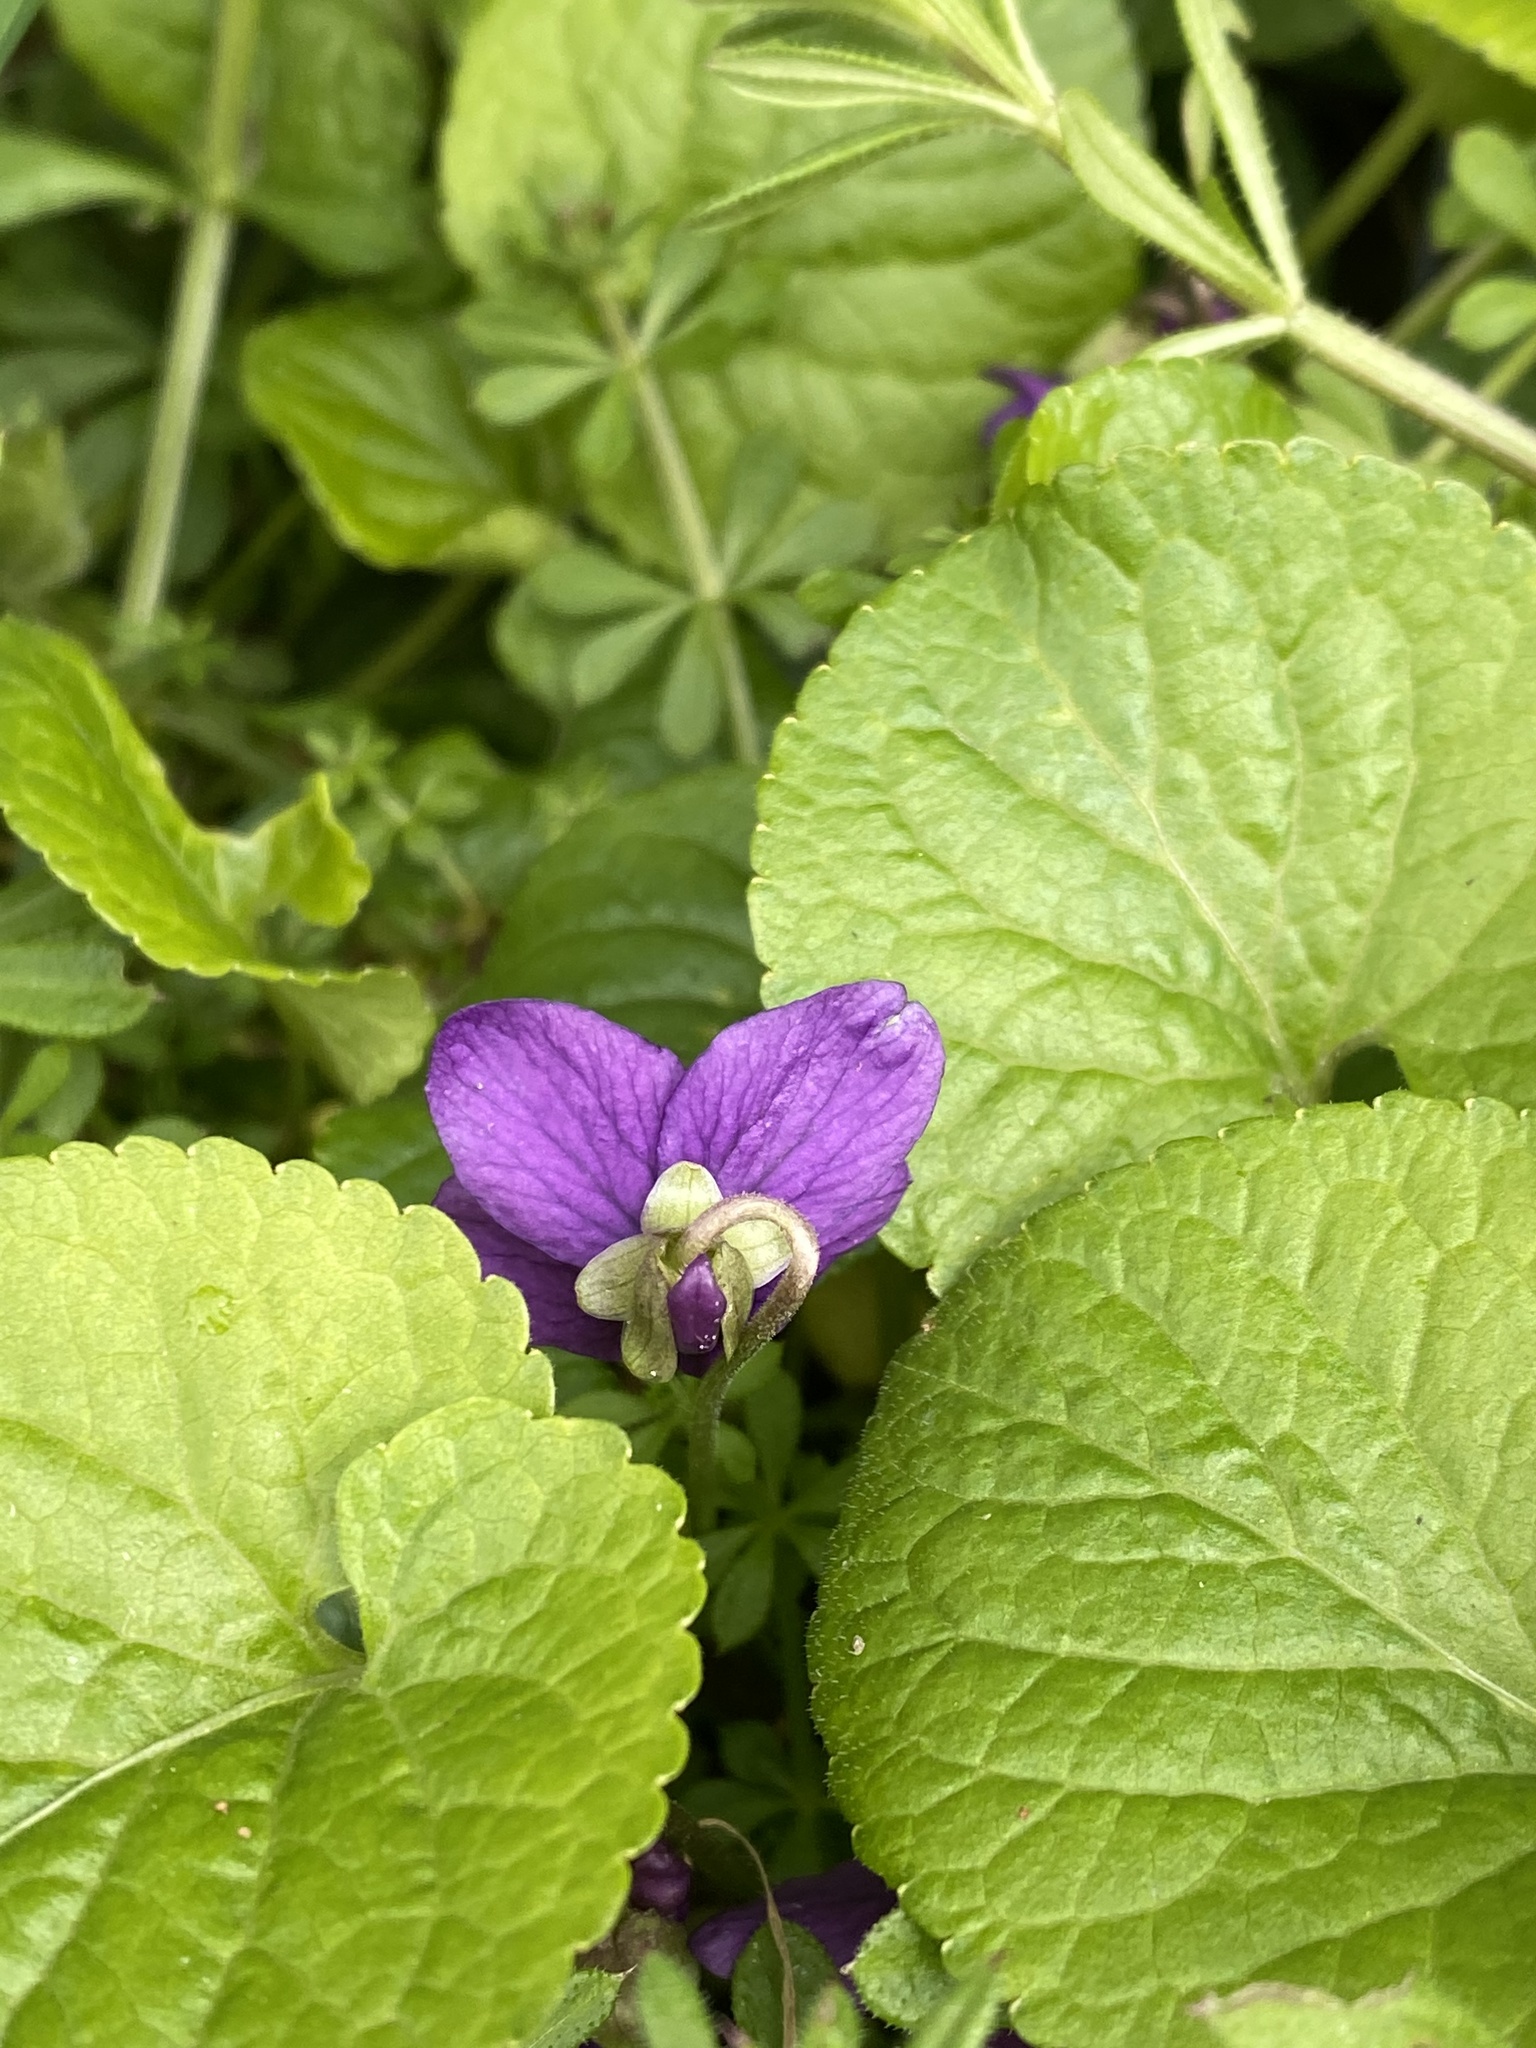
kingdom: Plantae
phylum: Tracheophyta
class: Magnoliopsida
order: Malpighiales
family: Violaceae
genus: Viola
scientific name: Viola odorata
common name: Sweet violet
